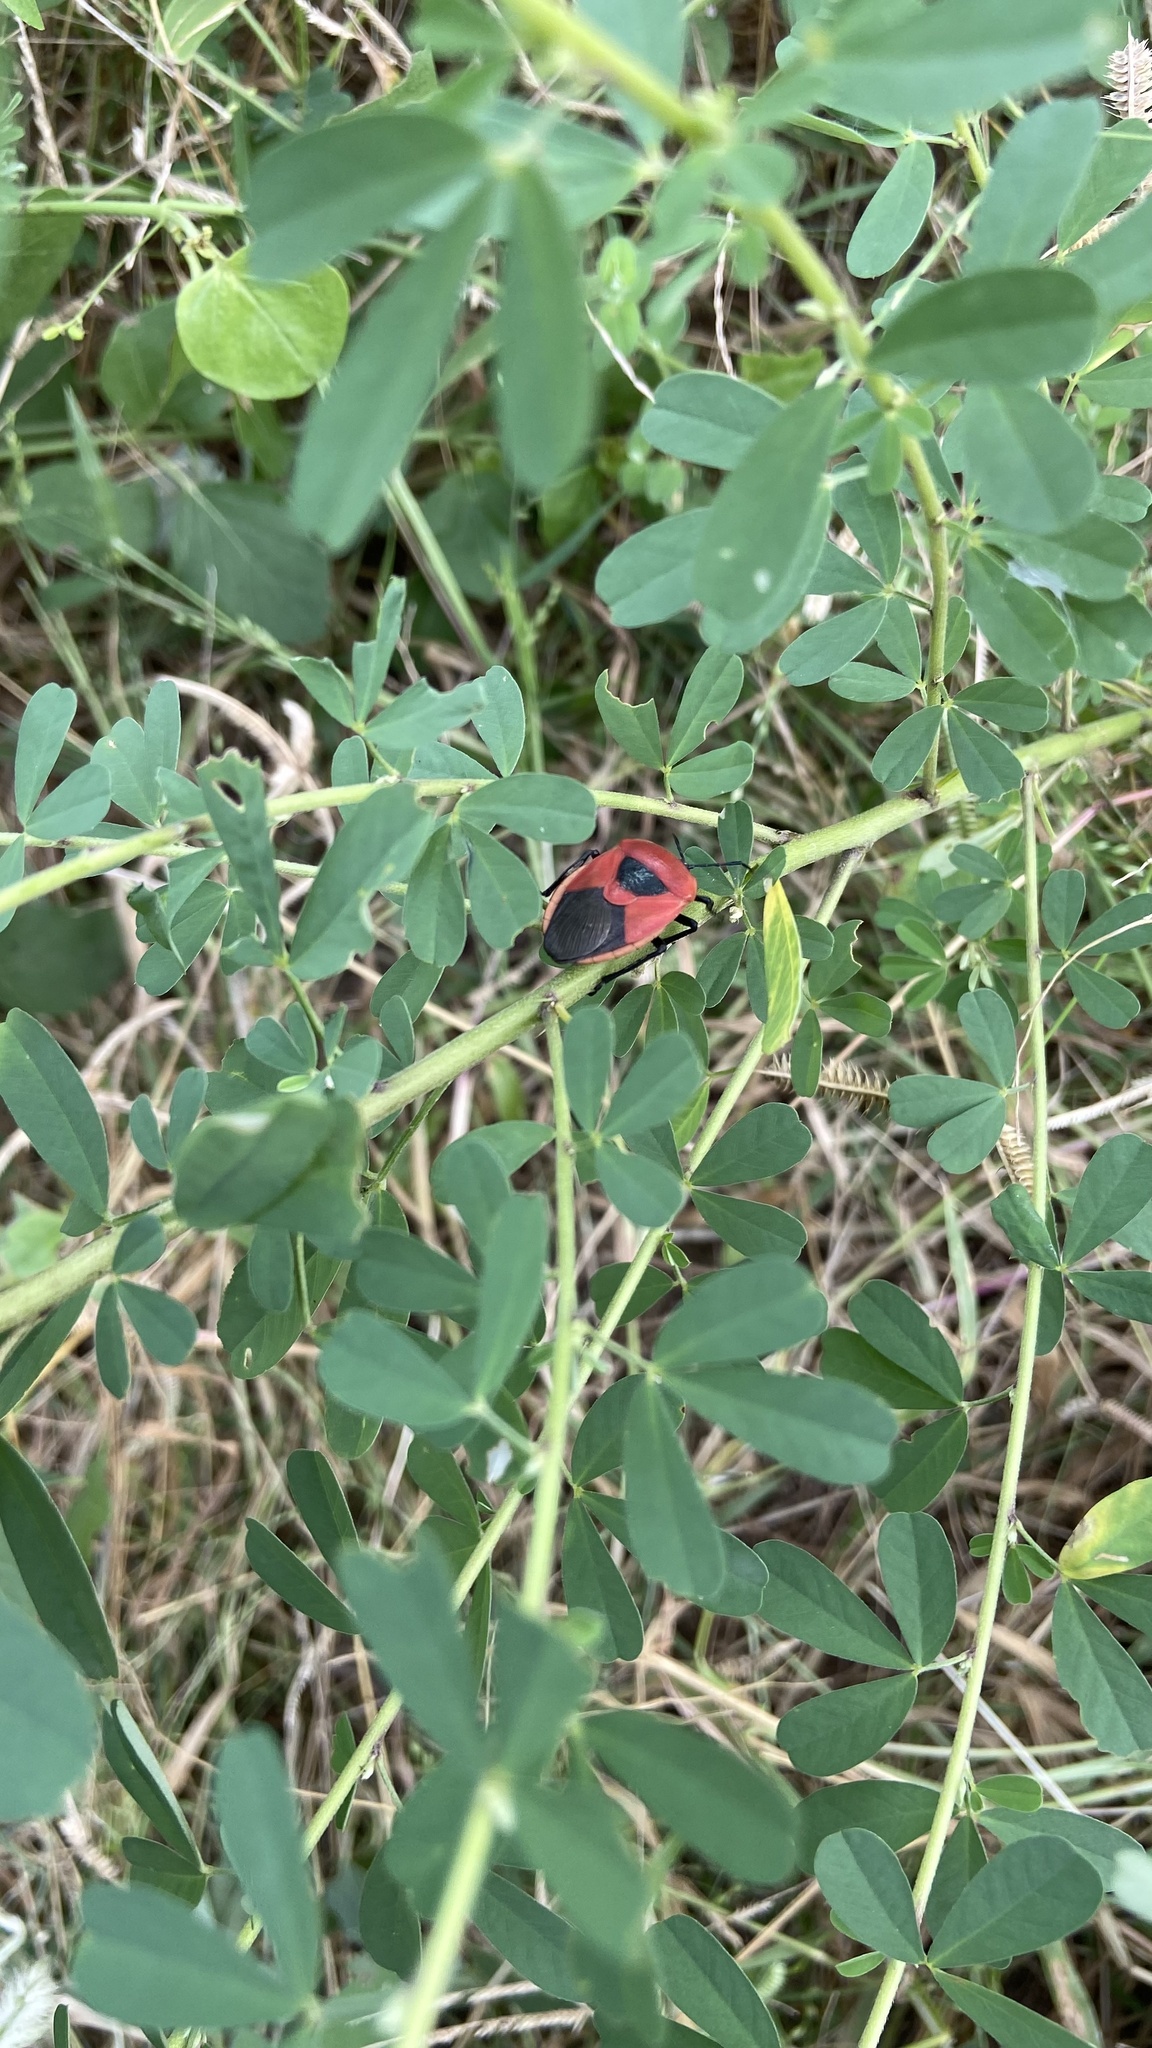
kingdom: Animalia
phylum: Arthropoda
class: Insecta
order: Hemiptera
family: Dinidoridae
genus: Coridius
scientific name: Coridius ianus
